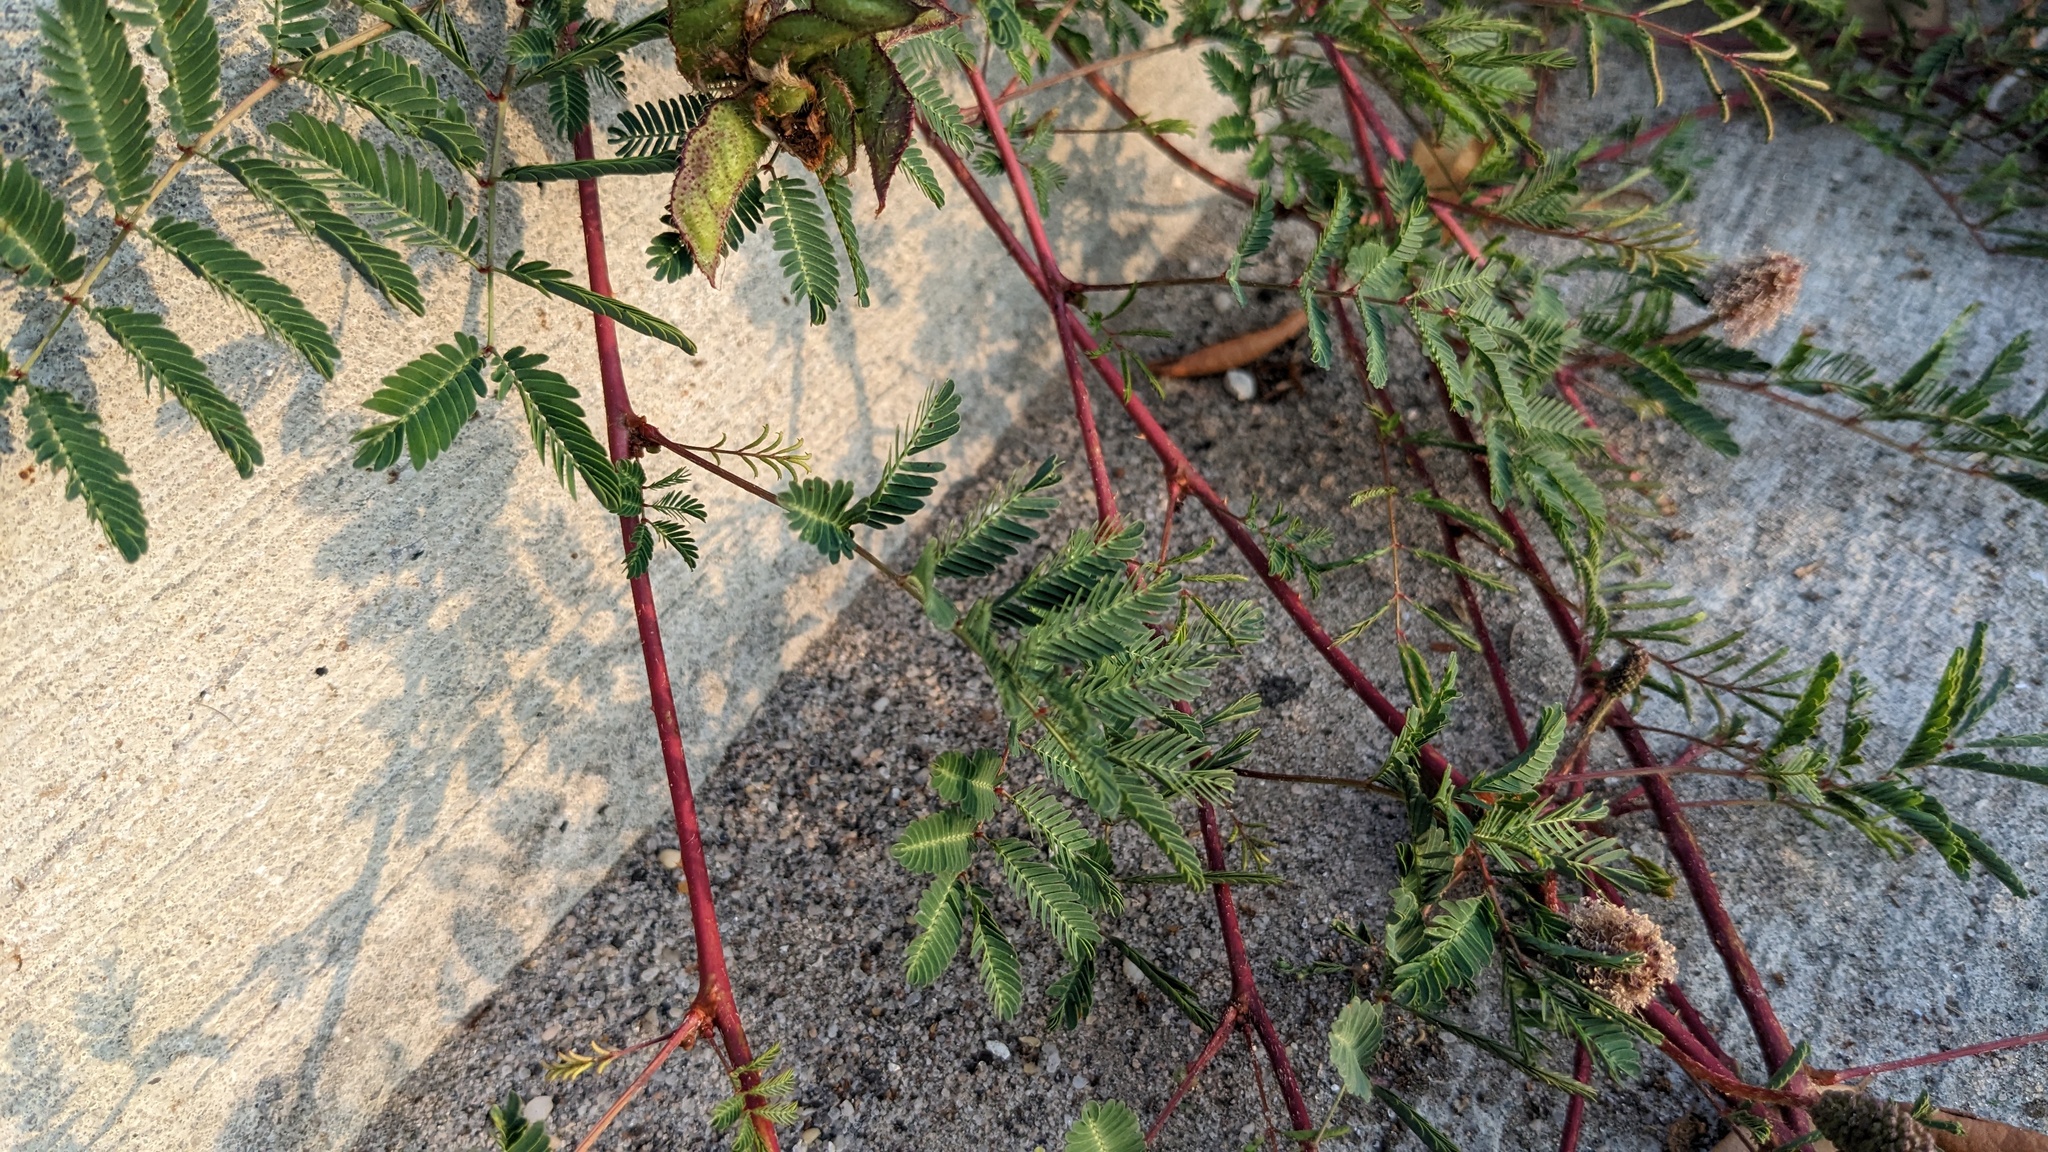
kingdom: Plantae
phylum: Tracheophyta
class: Magnoliopsida
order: Fabales
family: Fabaceae
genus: Mimosa
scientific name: Mimosa strigillosa
